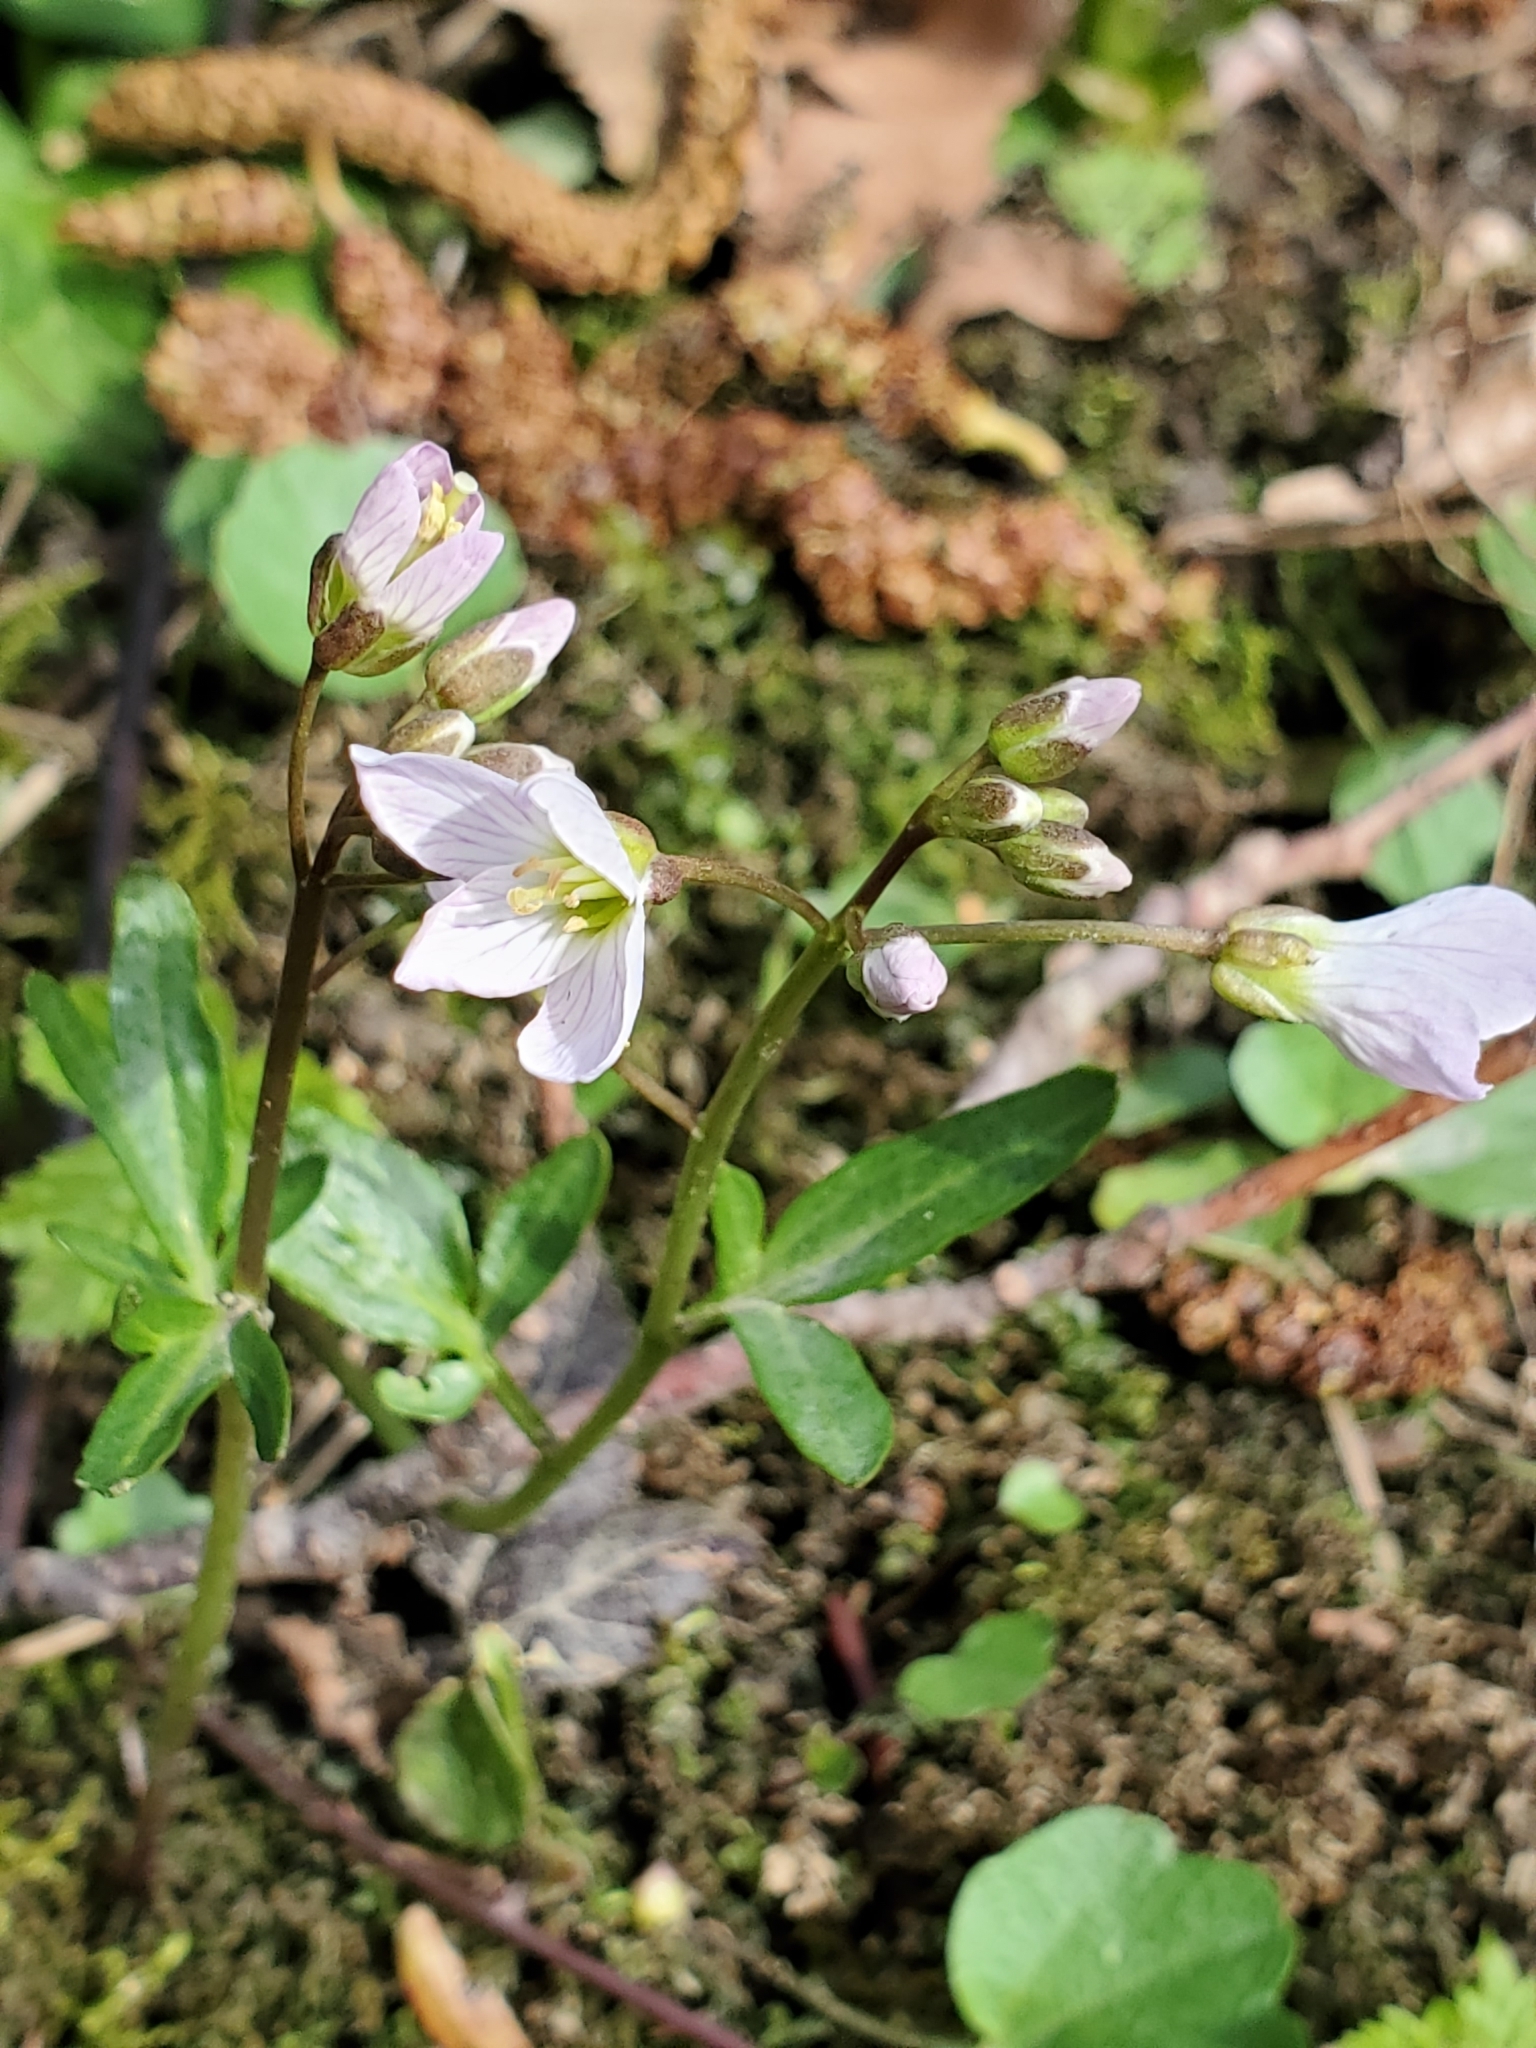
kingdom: Plantae
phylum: Tracheophyta
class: Magnoliopsida
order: Brassicales
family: Brassicaceae
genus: Cardamine
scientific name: Cardamine nuttallii
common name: Nuttall's toothwort
